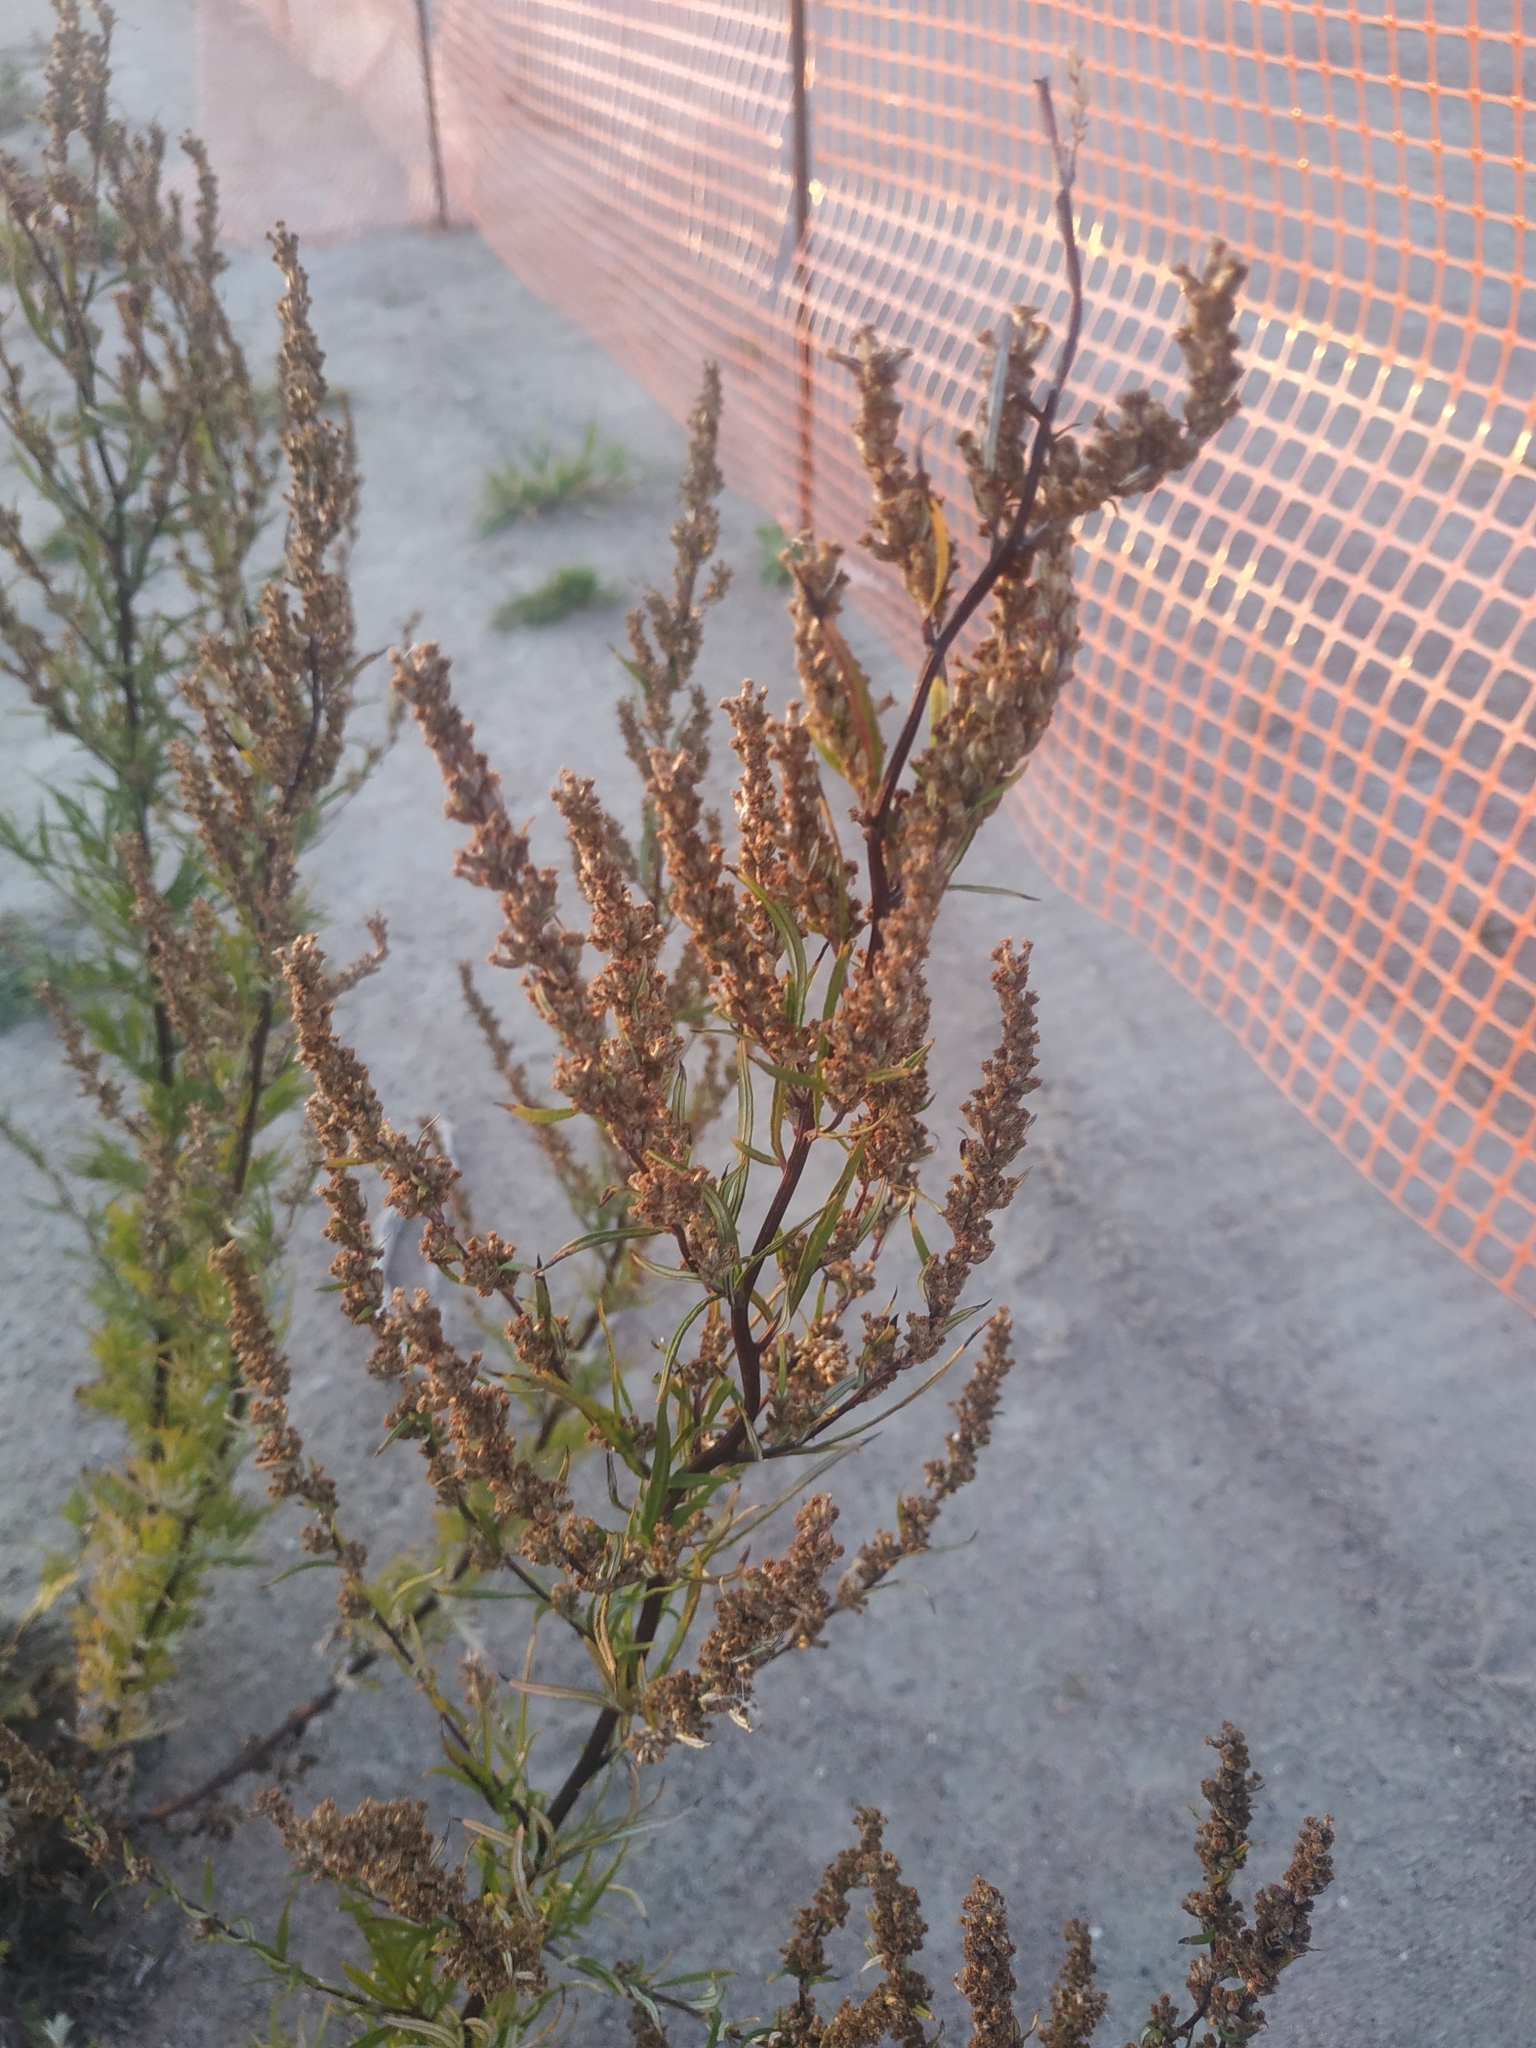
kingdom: Plantae
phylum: Tracheophyta
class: Magnoliopsida
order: Asterales
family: Asteraceae
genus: Artemisia
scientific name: Artemisia vulgaris
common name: Mugwort
